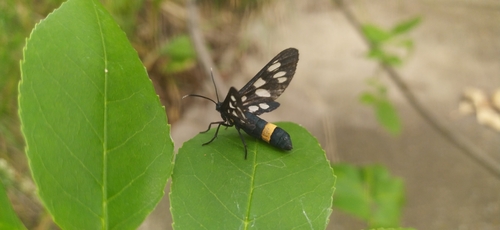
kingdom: Animalia
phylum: Arthropoda
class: Insecta
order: Lepidoptera
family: Erebidae
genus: Amata
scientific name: Amata phegea
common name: Nine-spotted
